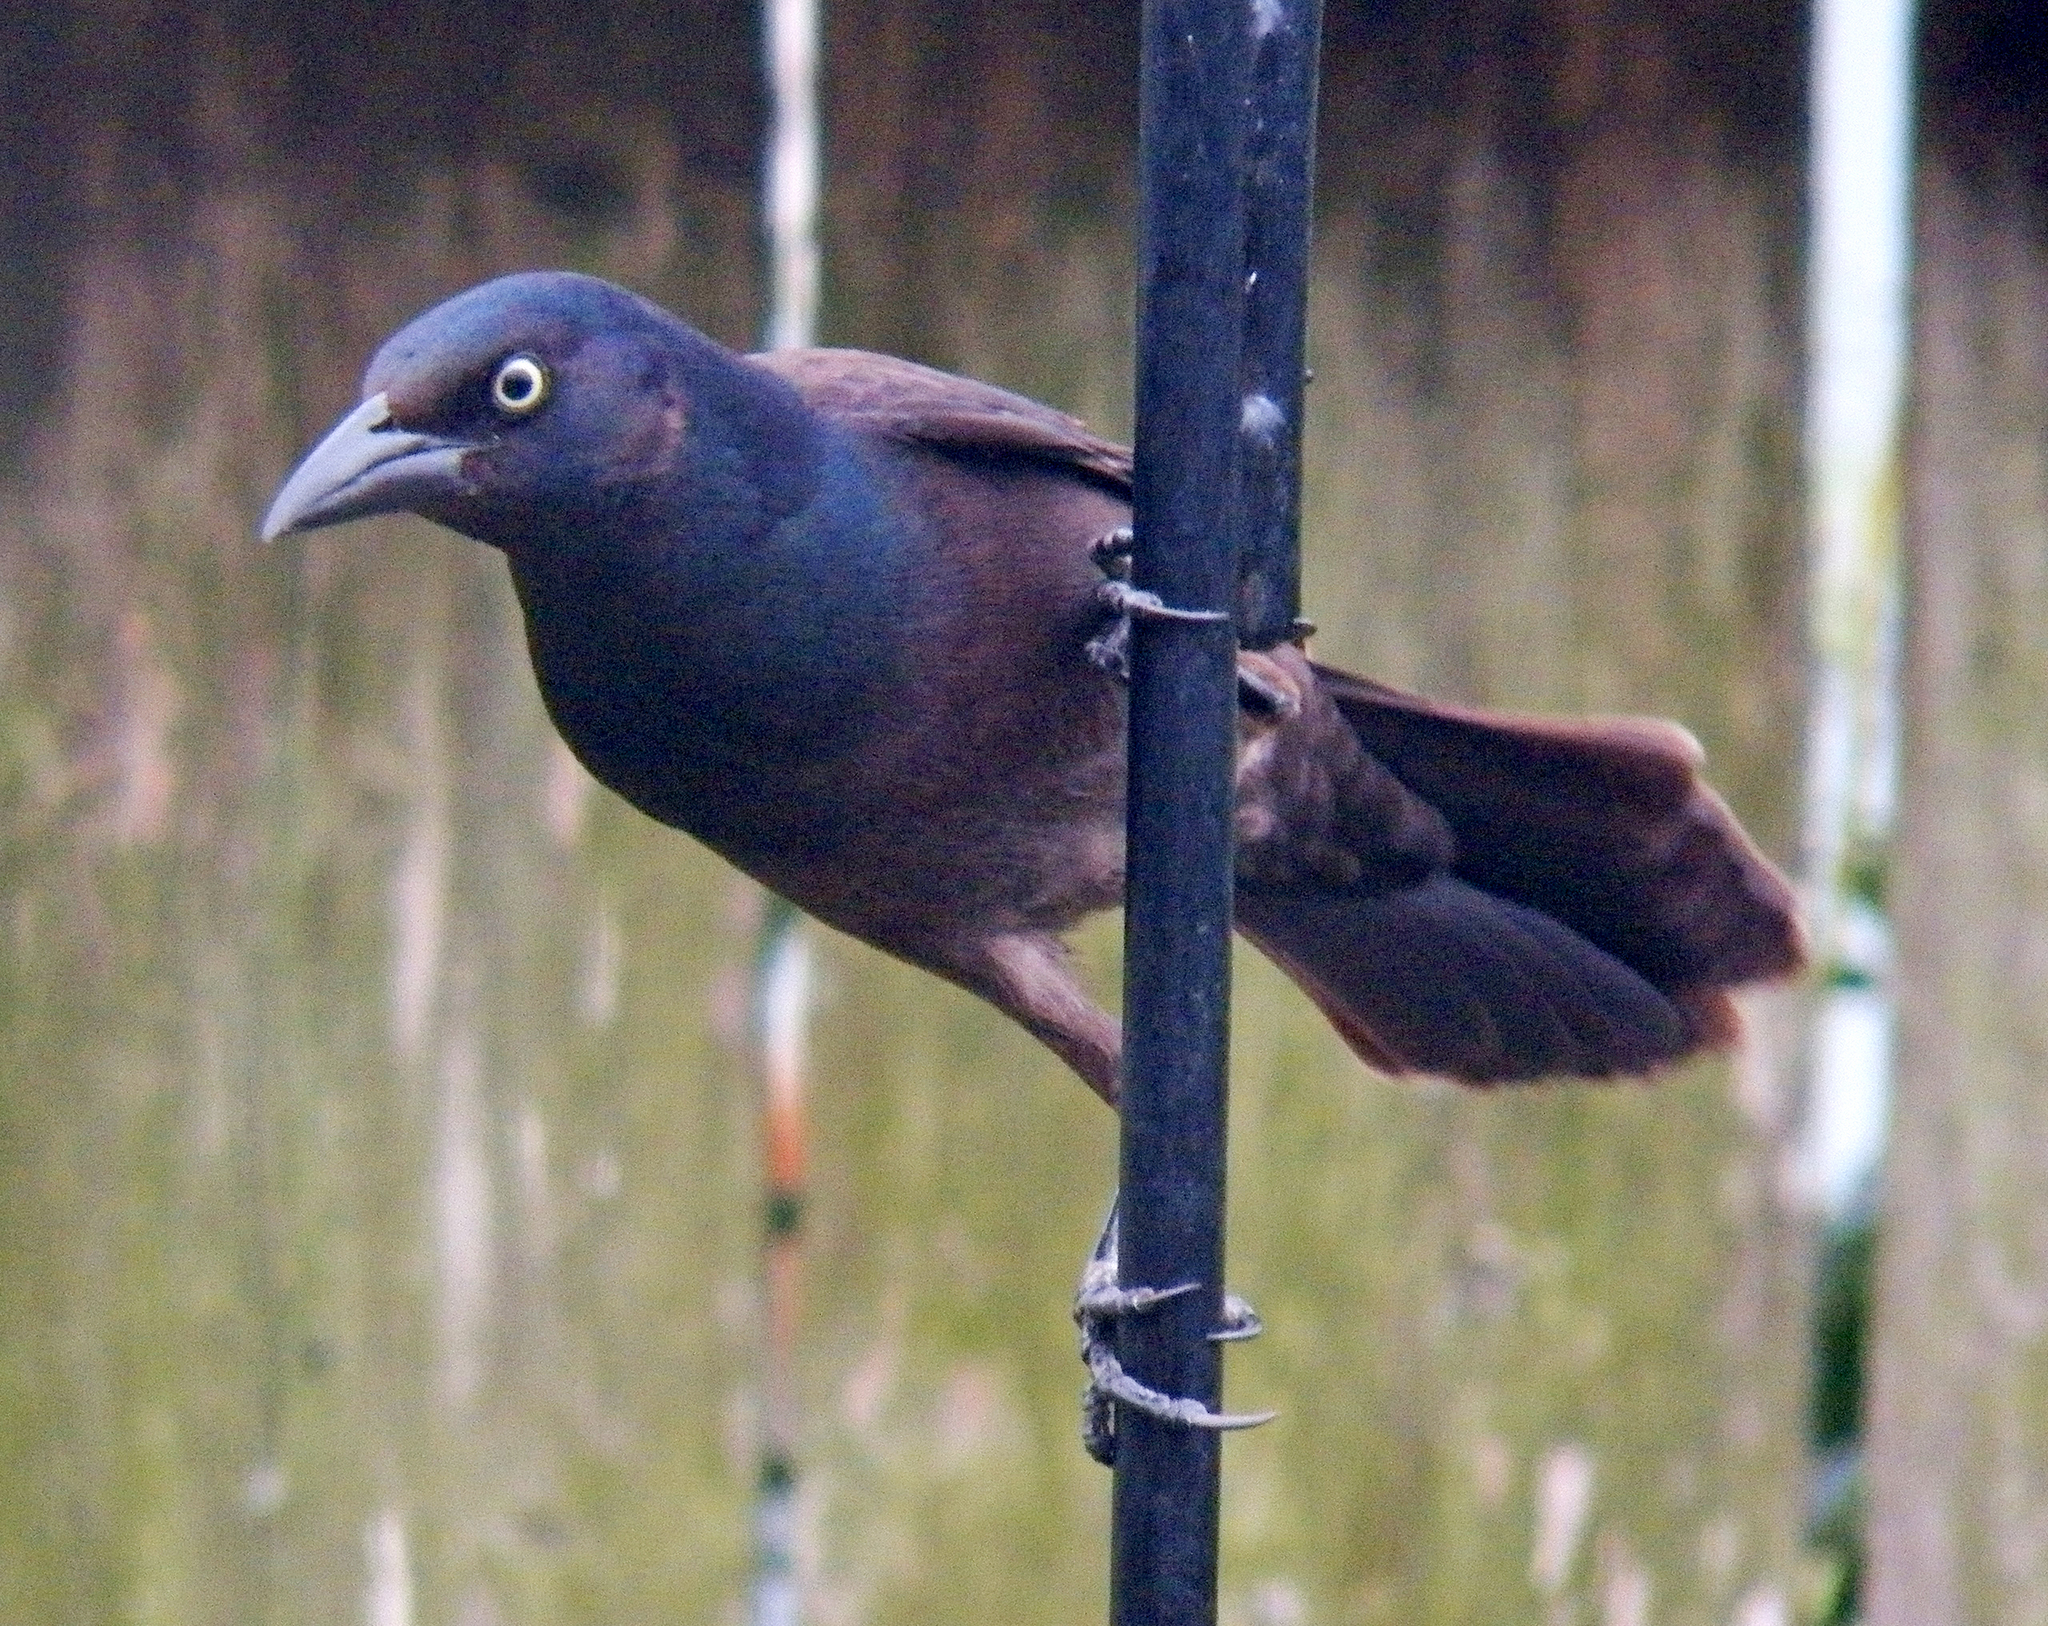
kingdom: Animalia
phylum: Chordata
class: Aves
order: Passeriformes
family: Icteridae
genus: Quiscalus
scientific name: Quiscalus quiscula
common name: Common grackle
